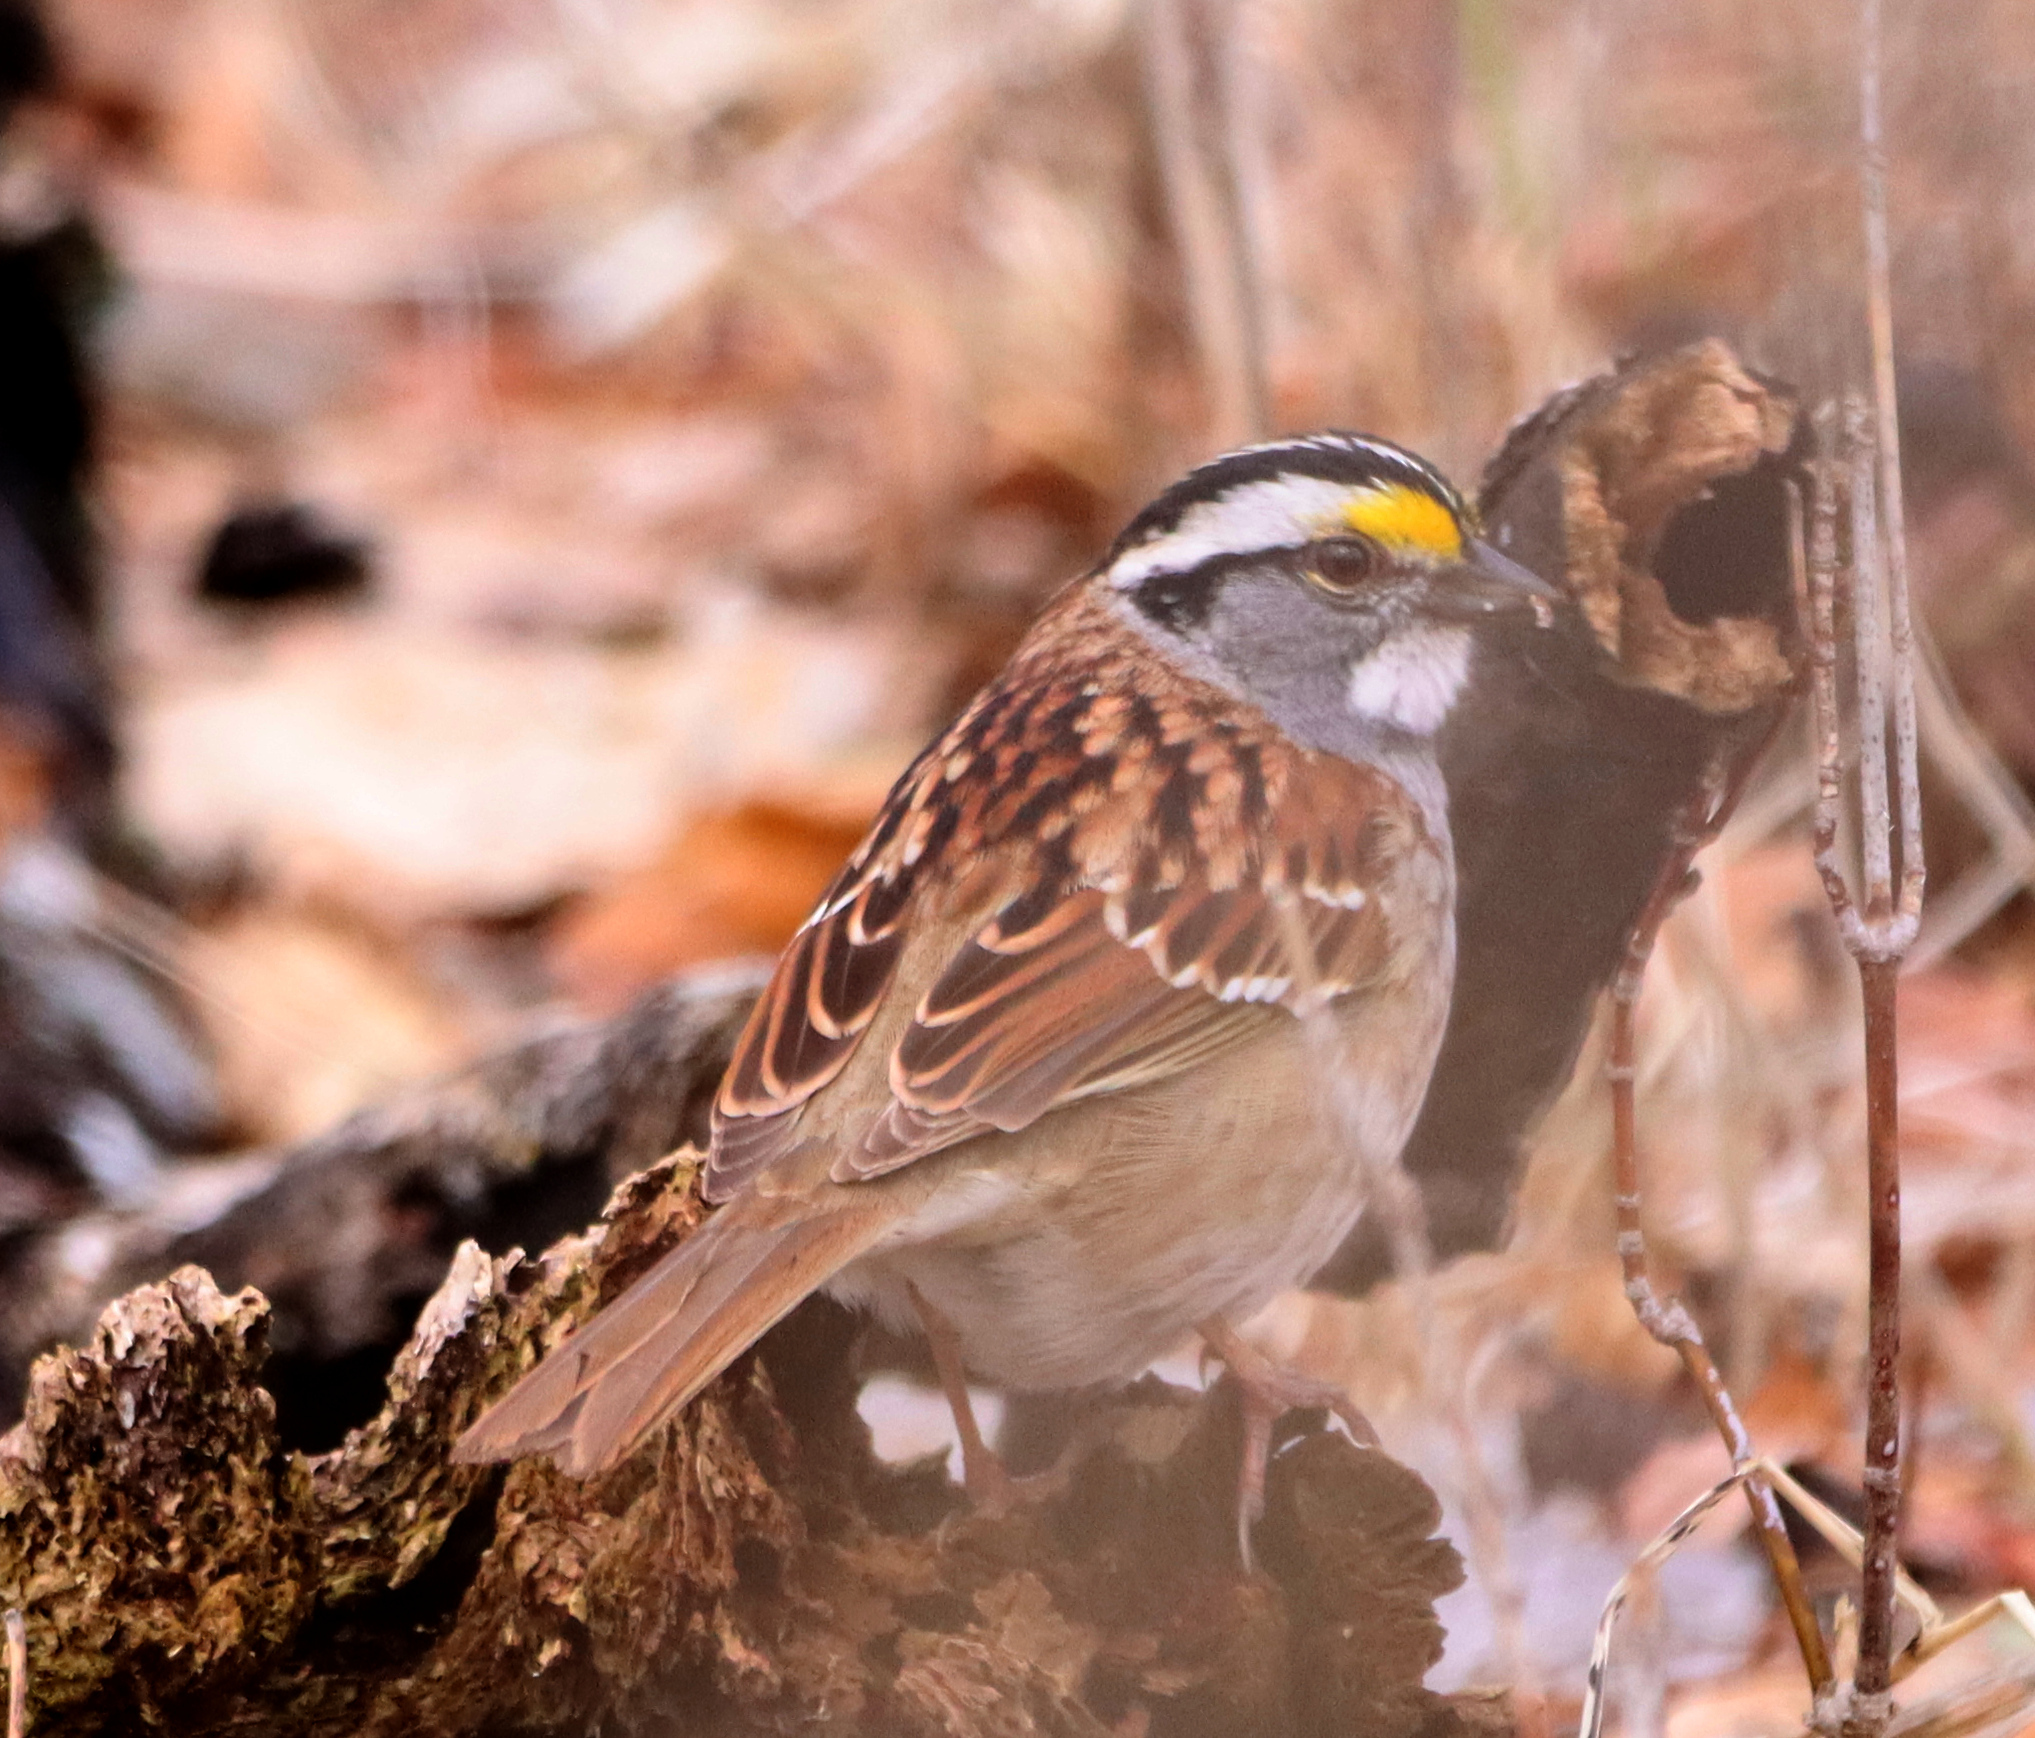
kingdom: Animalia
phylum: Chordata
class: Aves
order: Passeriformes
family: Passerellidae
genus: Zonotrichia
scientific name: Zonotrichia albicollis
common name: White-throated sparrow
